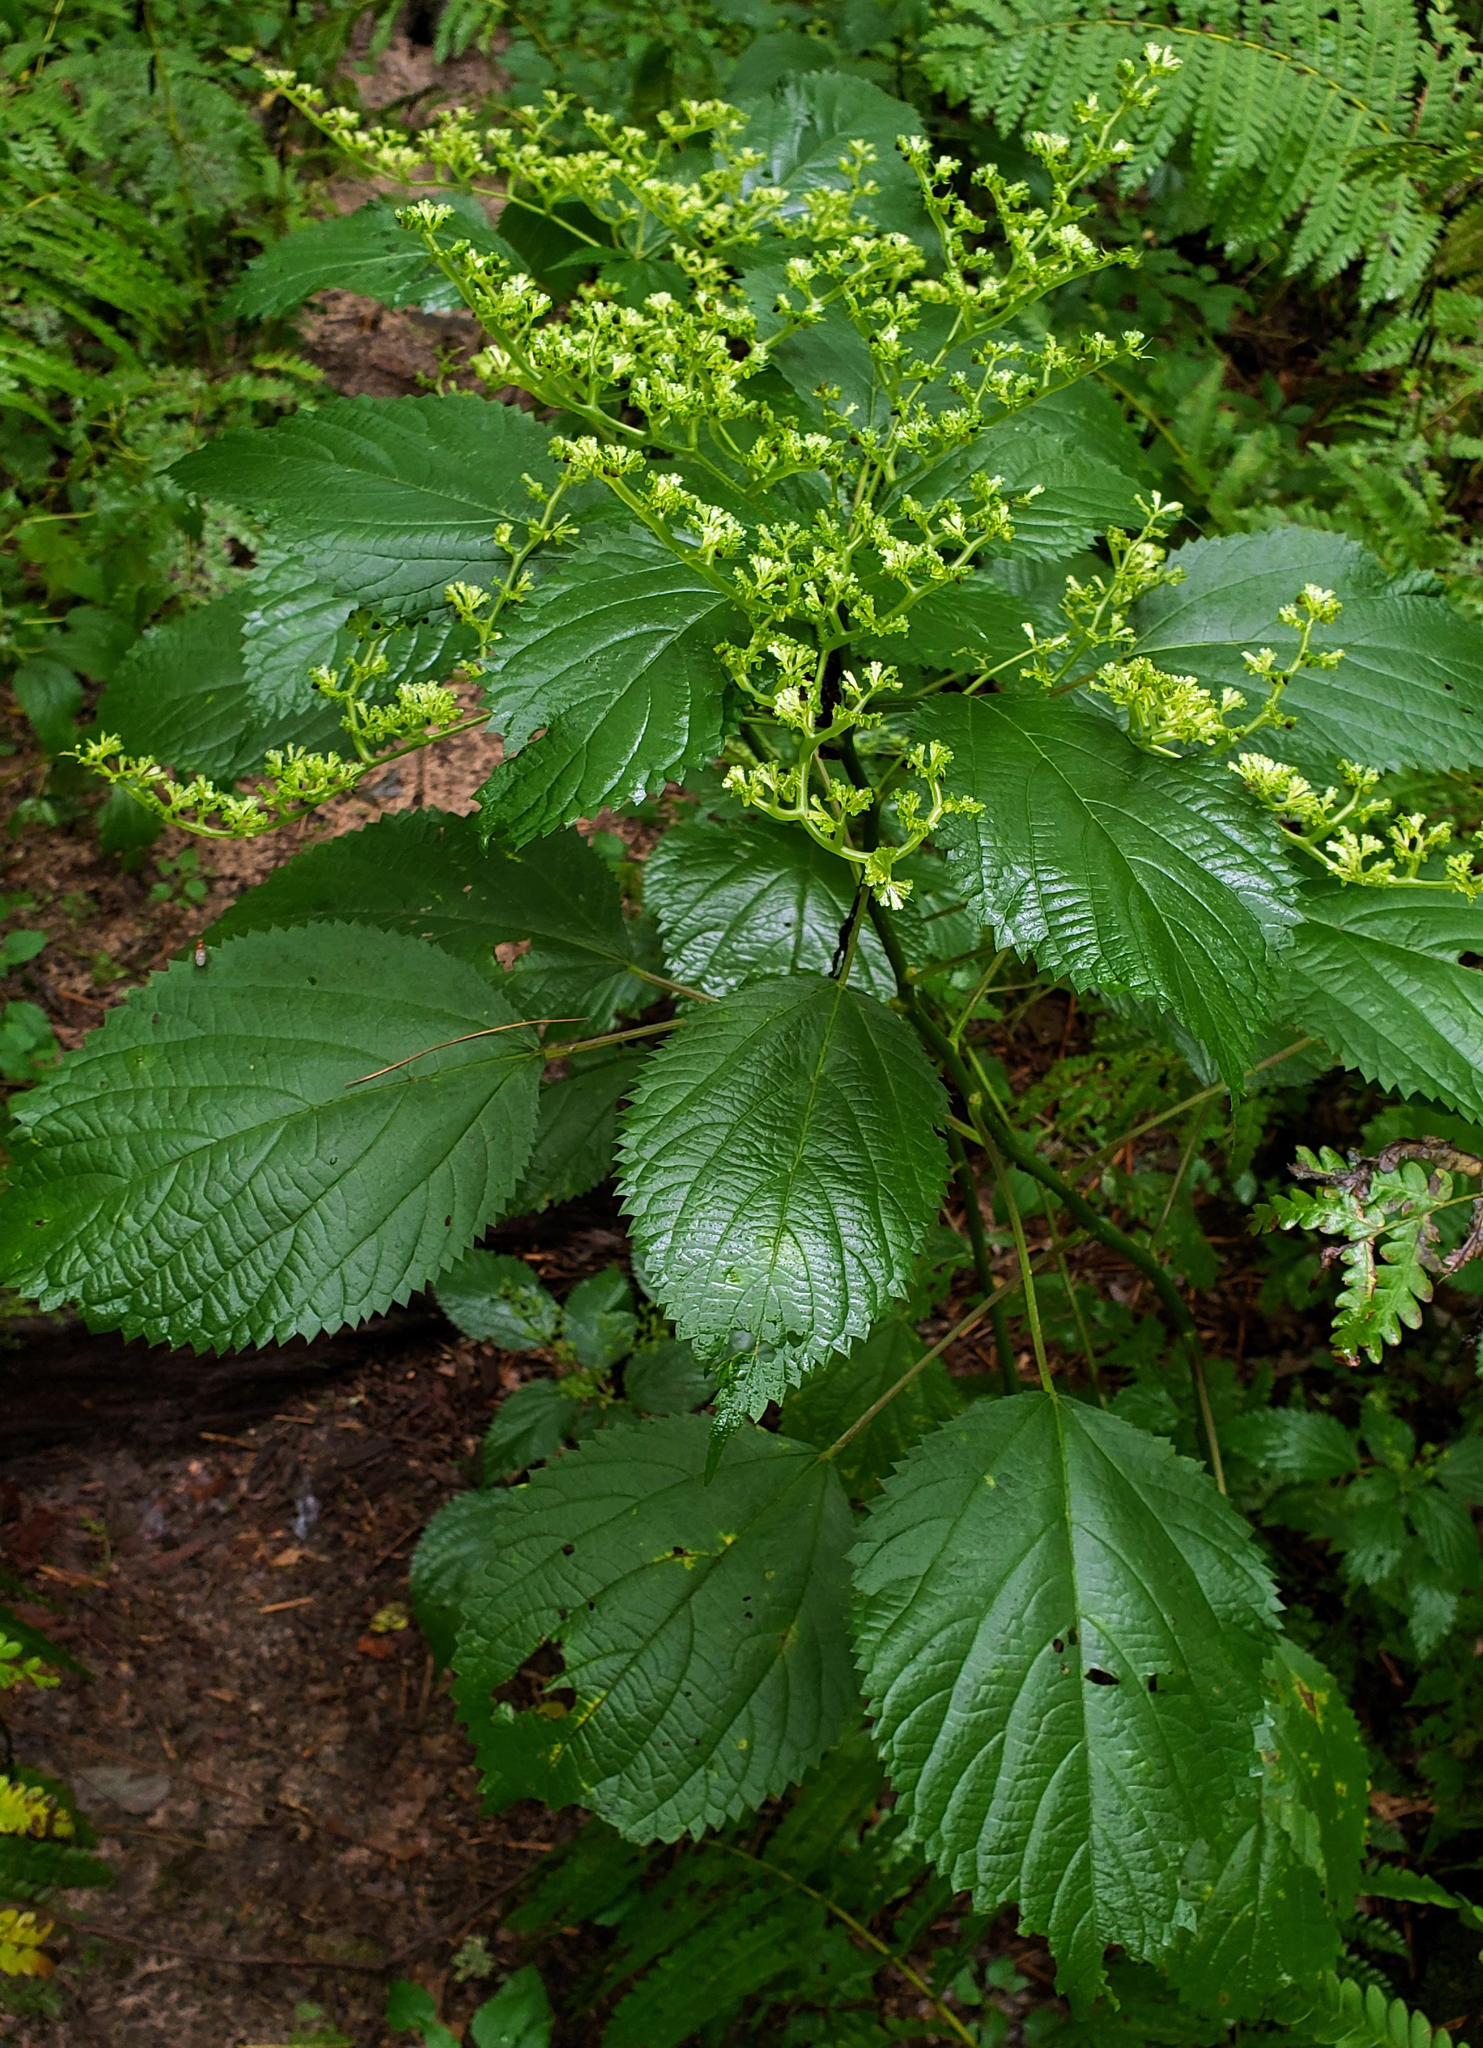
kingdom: Plantae
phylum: Tracheophyta
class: Magnoliopsida
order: Rosales
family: Urticaceae
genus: Laportea
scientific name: Laportea canadensis
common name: Canada nettle
